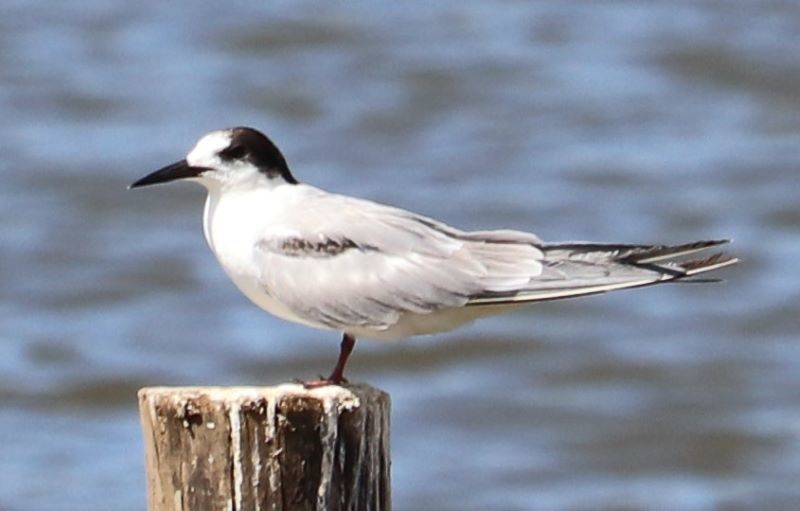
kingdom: Animalia
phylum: Chordata
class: Aves
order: Charadriiformes
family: Laridae
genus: Sterna
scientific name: Sterna hirundo
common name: Common tern
